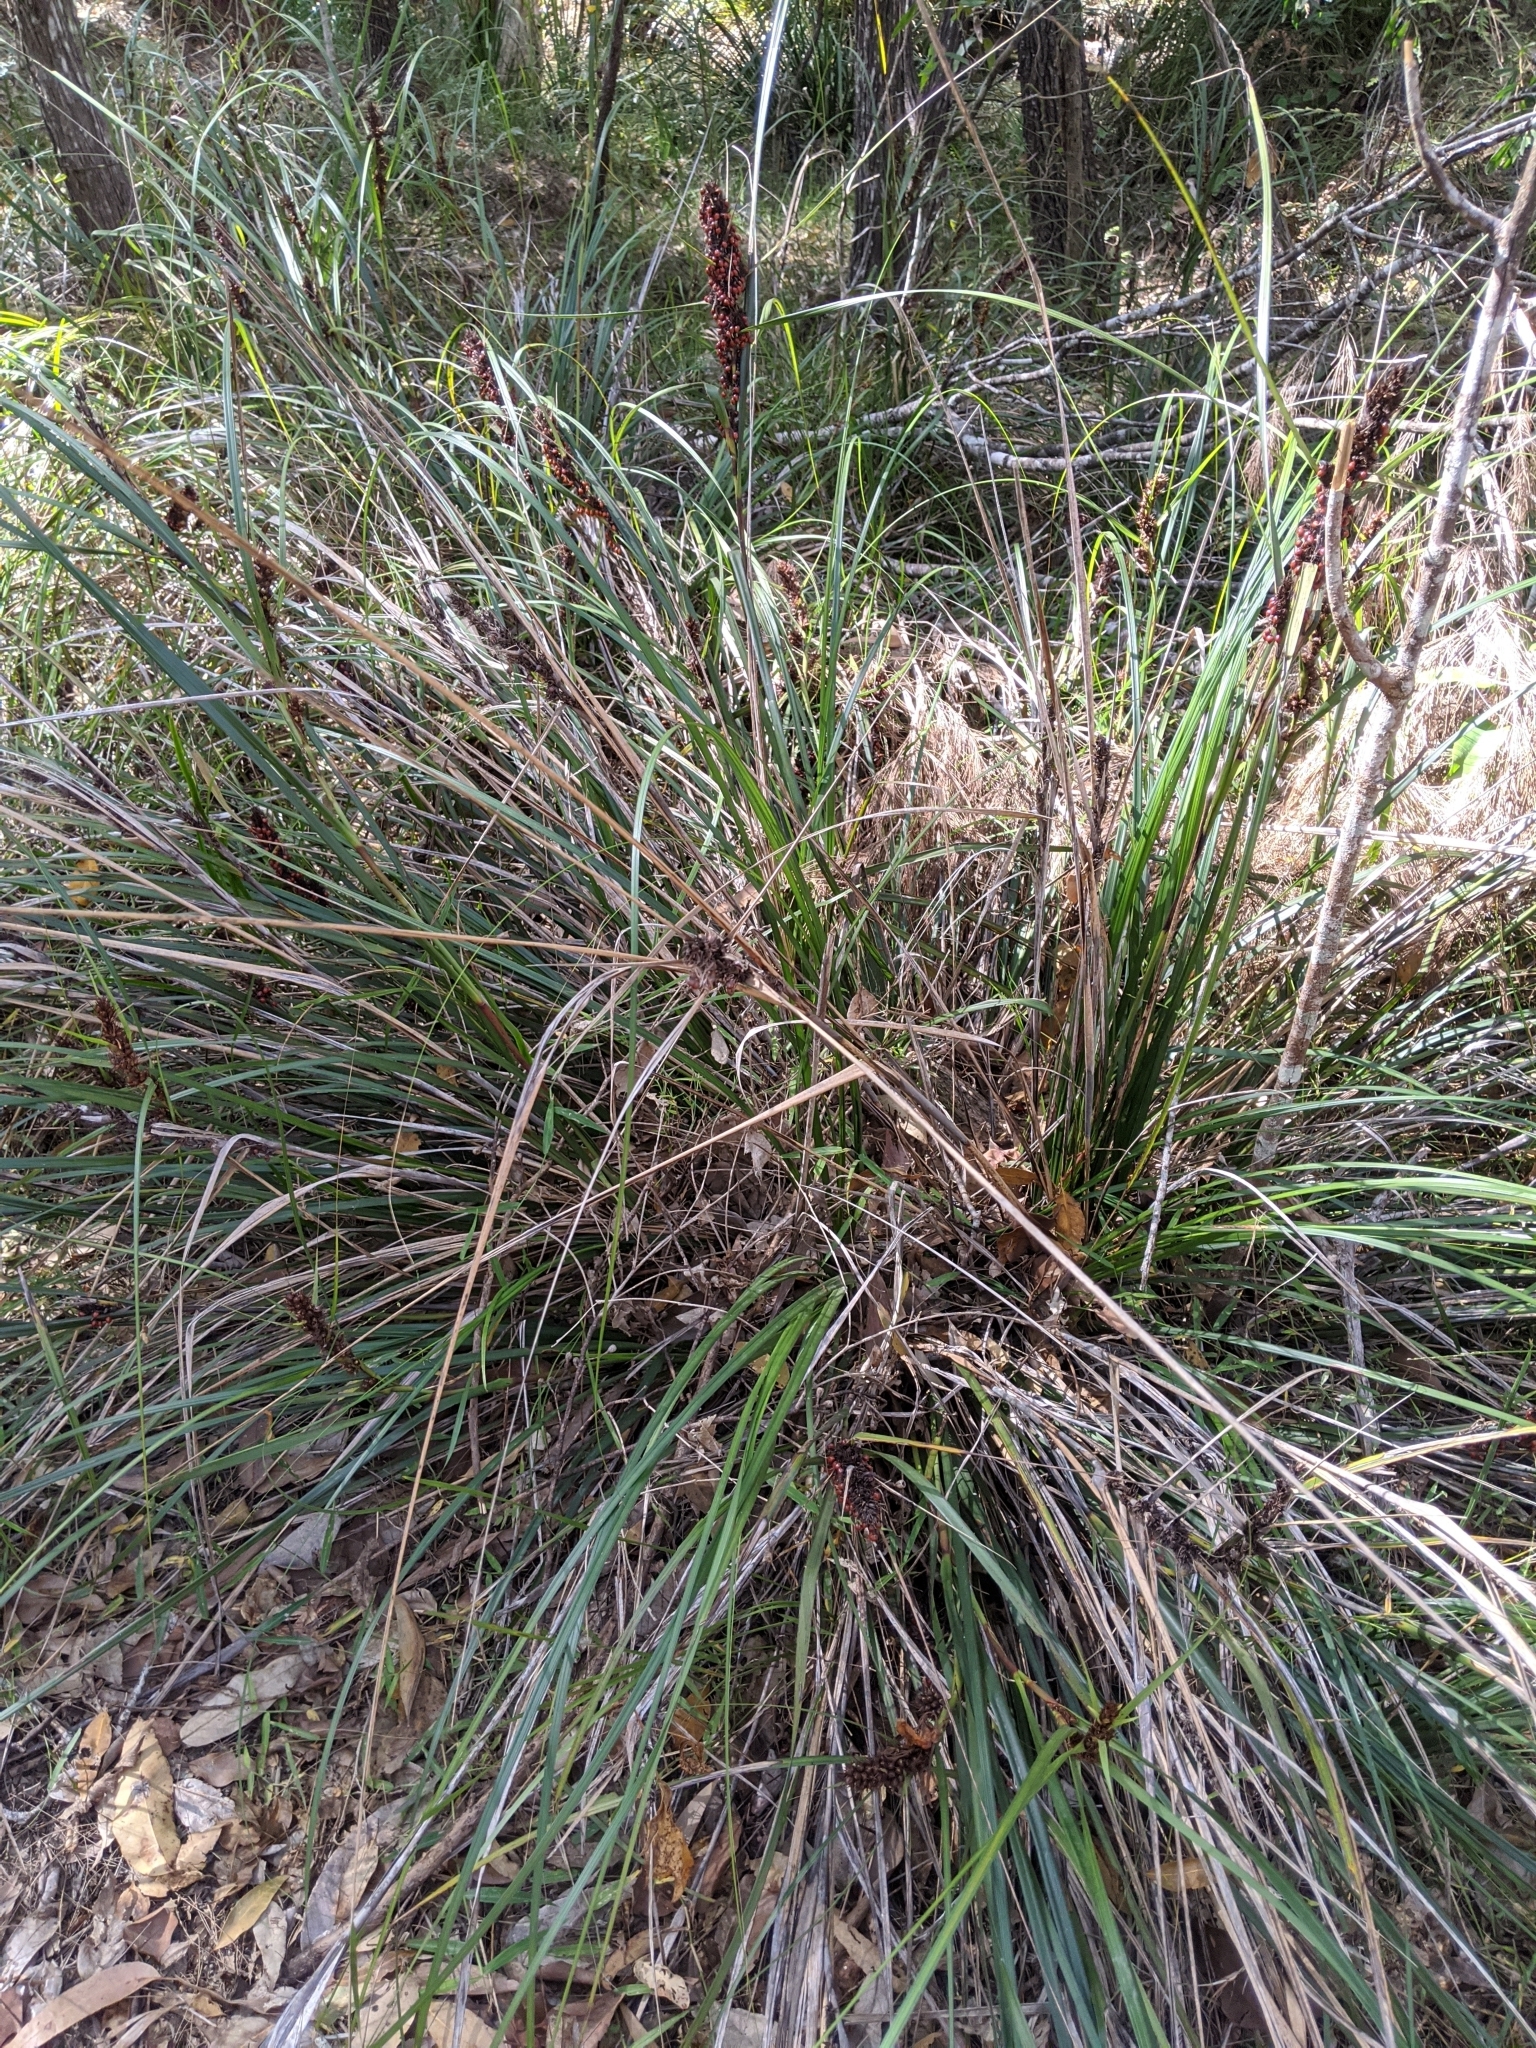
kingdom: Plantae
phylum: Tracheophyta
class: Liliopsida
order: Poales
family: Cyperaceae
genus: Gahnia
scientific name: Gahnia aspera
